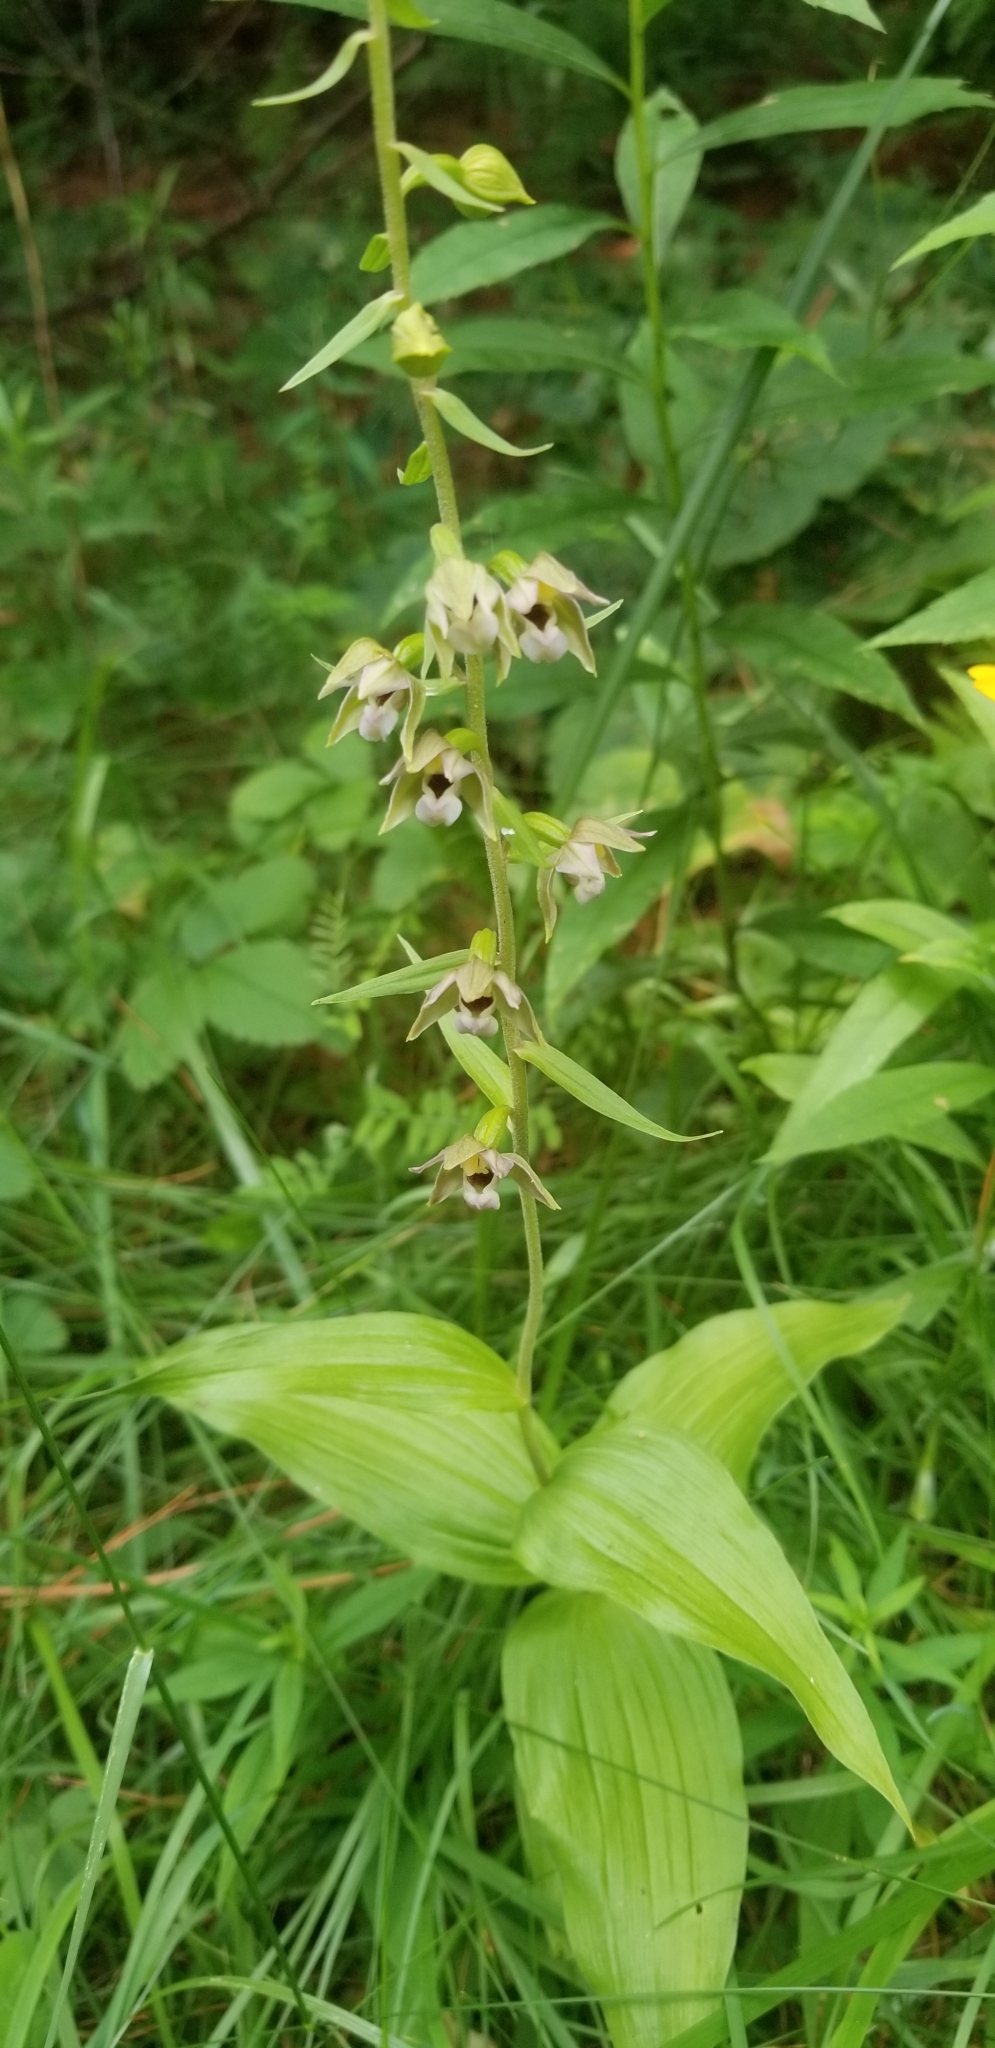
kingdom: Plantae
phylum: Tracheophyta
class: Liliopsida
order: Asparagales
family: Orchidaceae
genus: Epipactis
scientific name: Epipactis helleborine
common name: Broad-leaved helleborine
